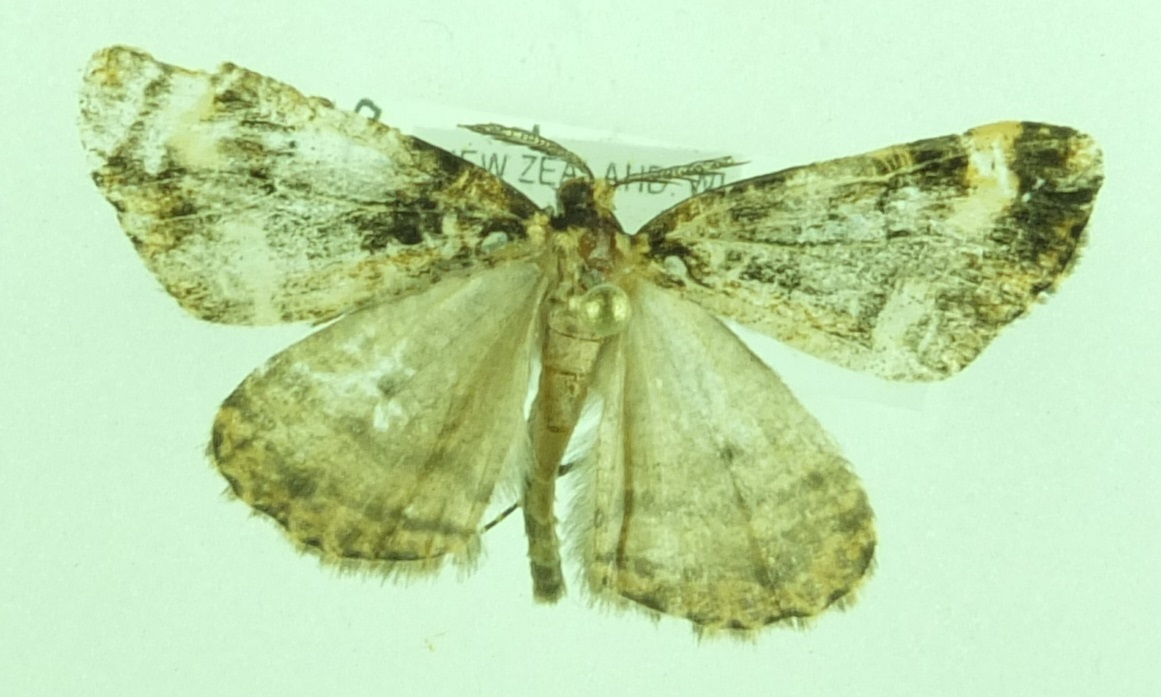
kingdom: Animalia
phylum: Arthropoda
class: Insecta
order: Lepidoptera
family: Geometridae
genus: Pseudocoremia
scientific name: Pseudocoremia leucelaea
